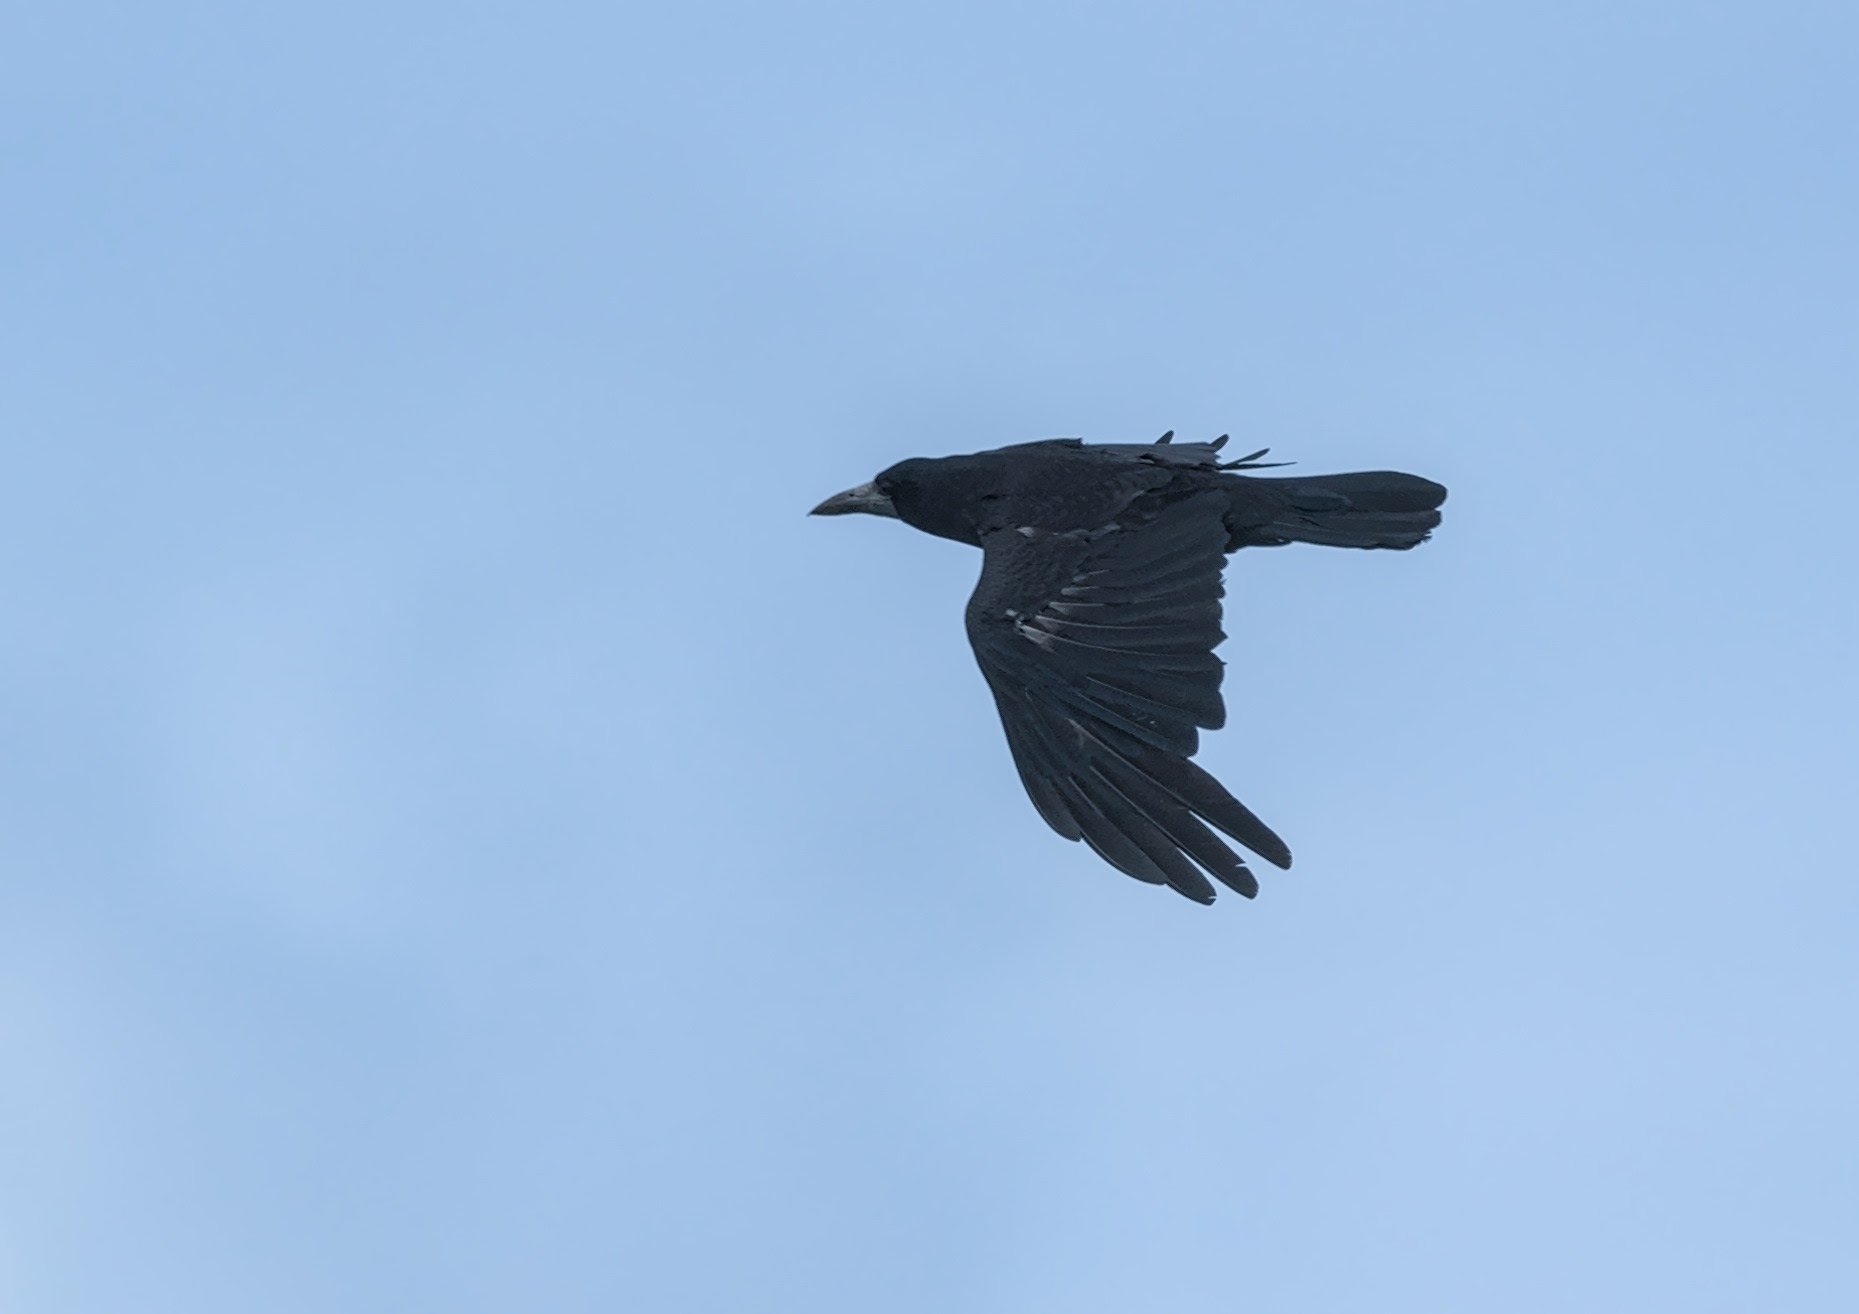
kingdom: Animalia
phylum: Chordata
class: Aves
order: Passeriformes
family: Corvidae
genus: Corvus
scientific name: Corvus frugilegus
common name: Rook
